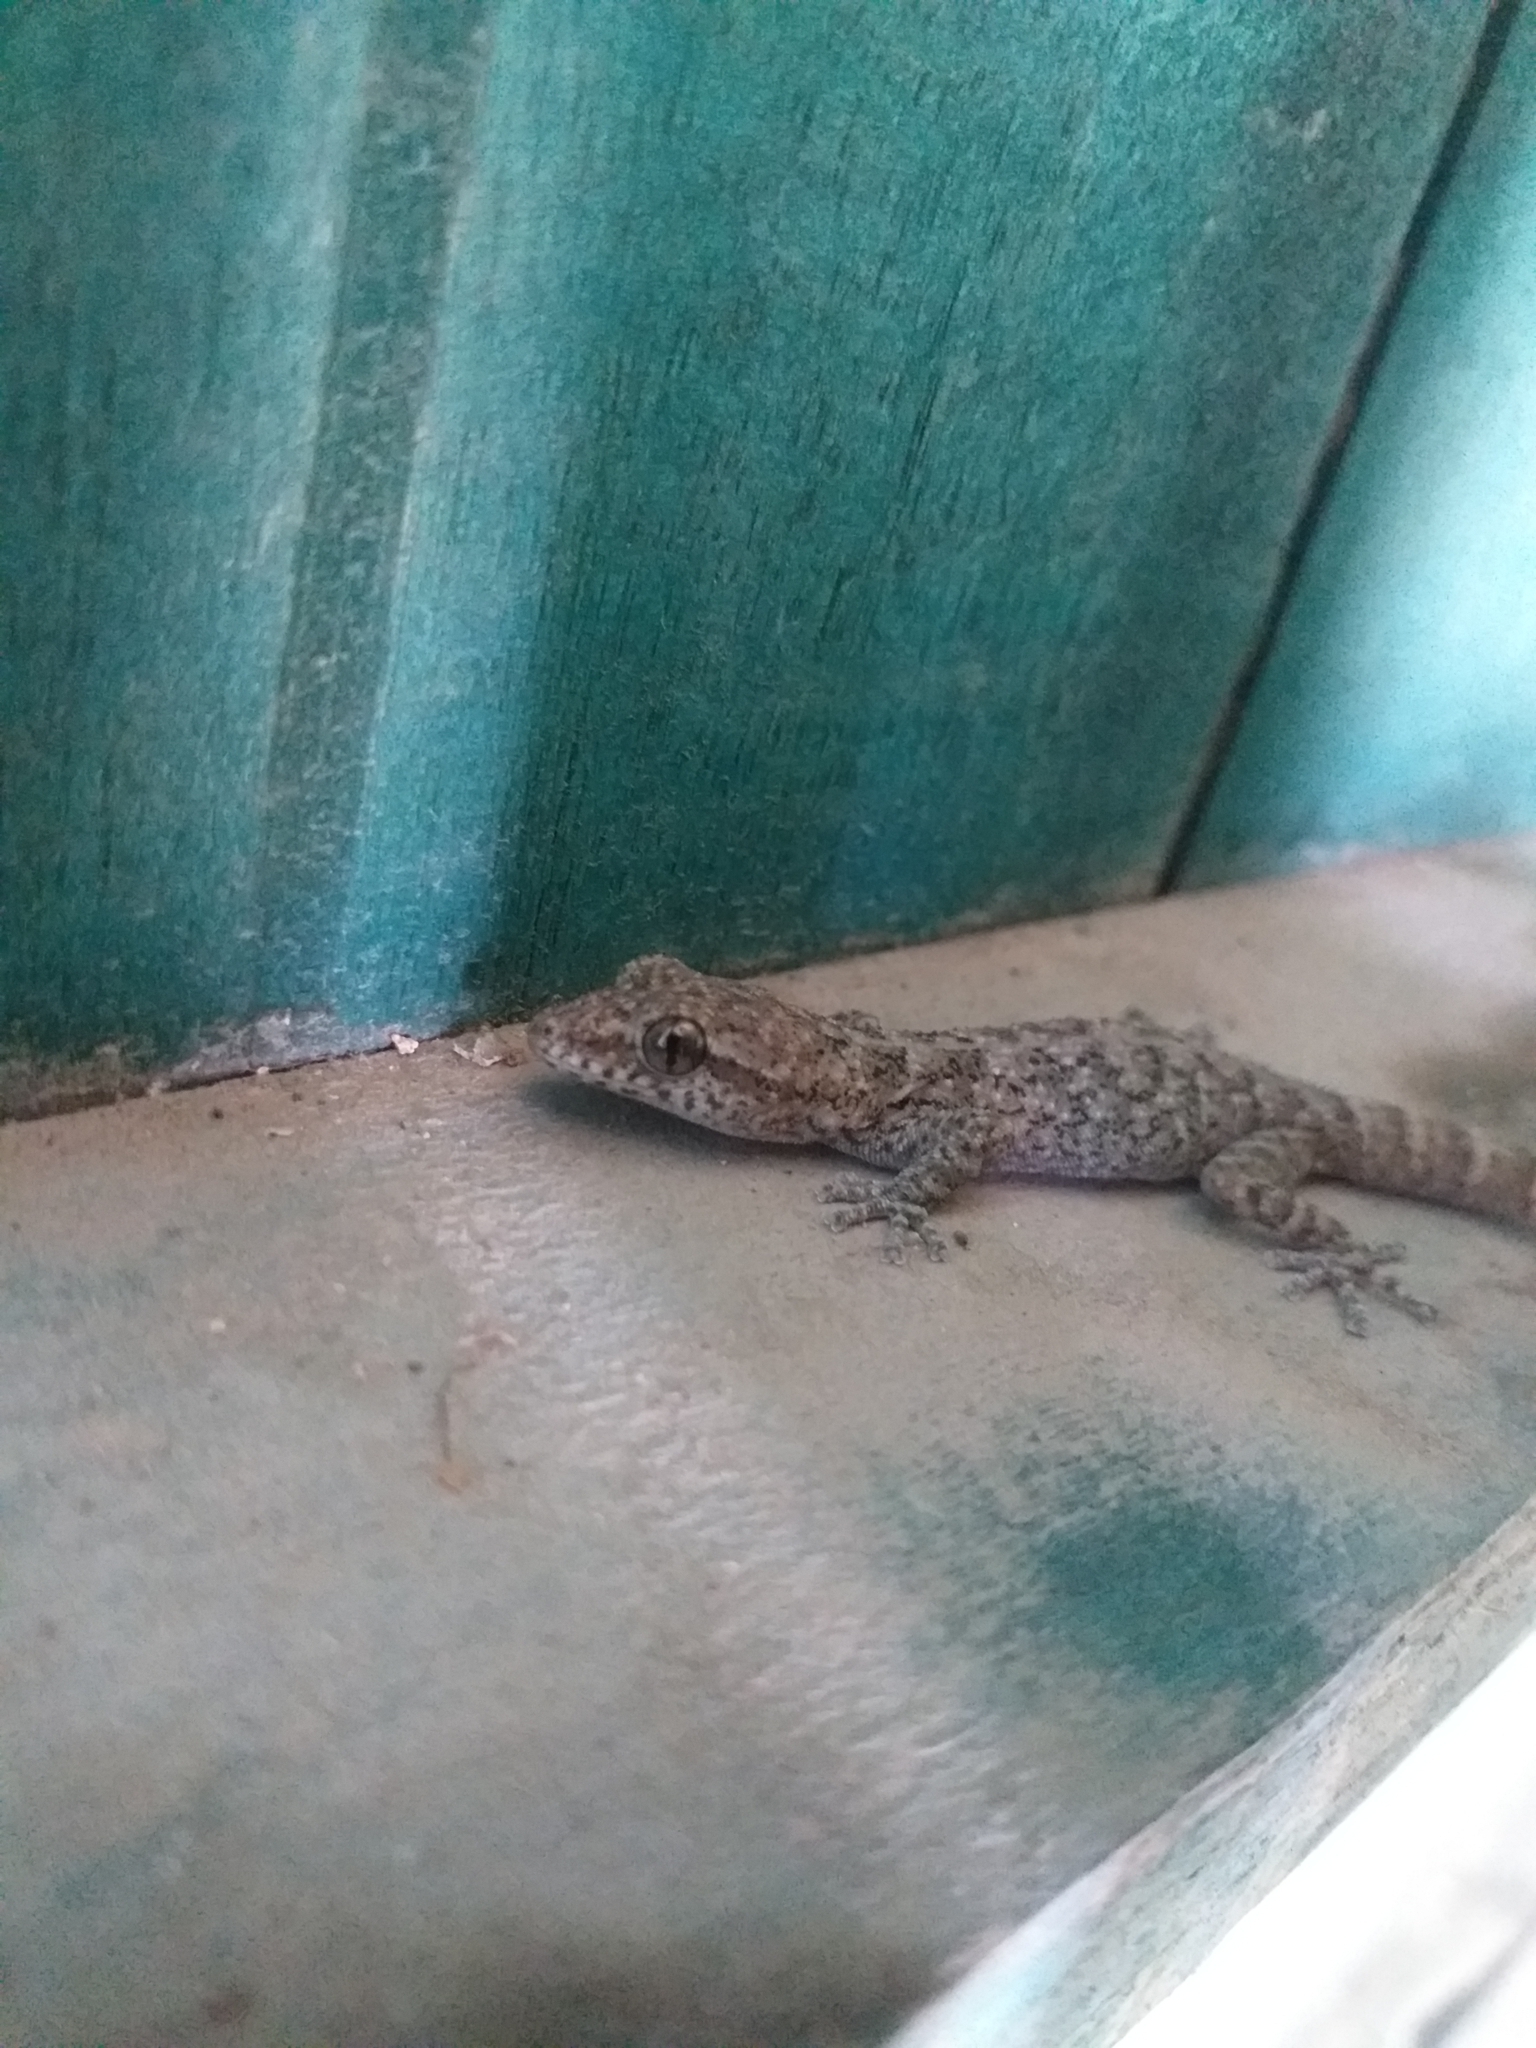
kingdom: Animalia
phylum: Chordata
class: Squamata
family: Phyllodactylidae
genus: Phyllodactylus
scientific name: Phyllodactylus
